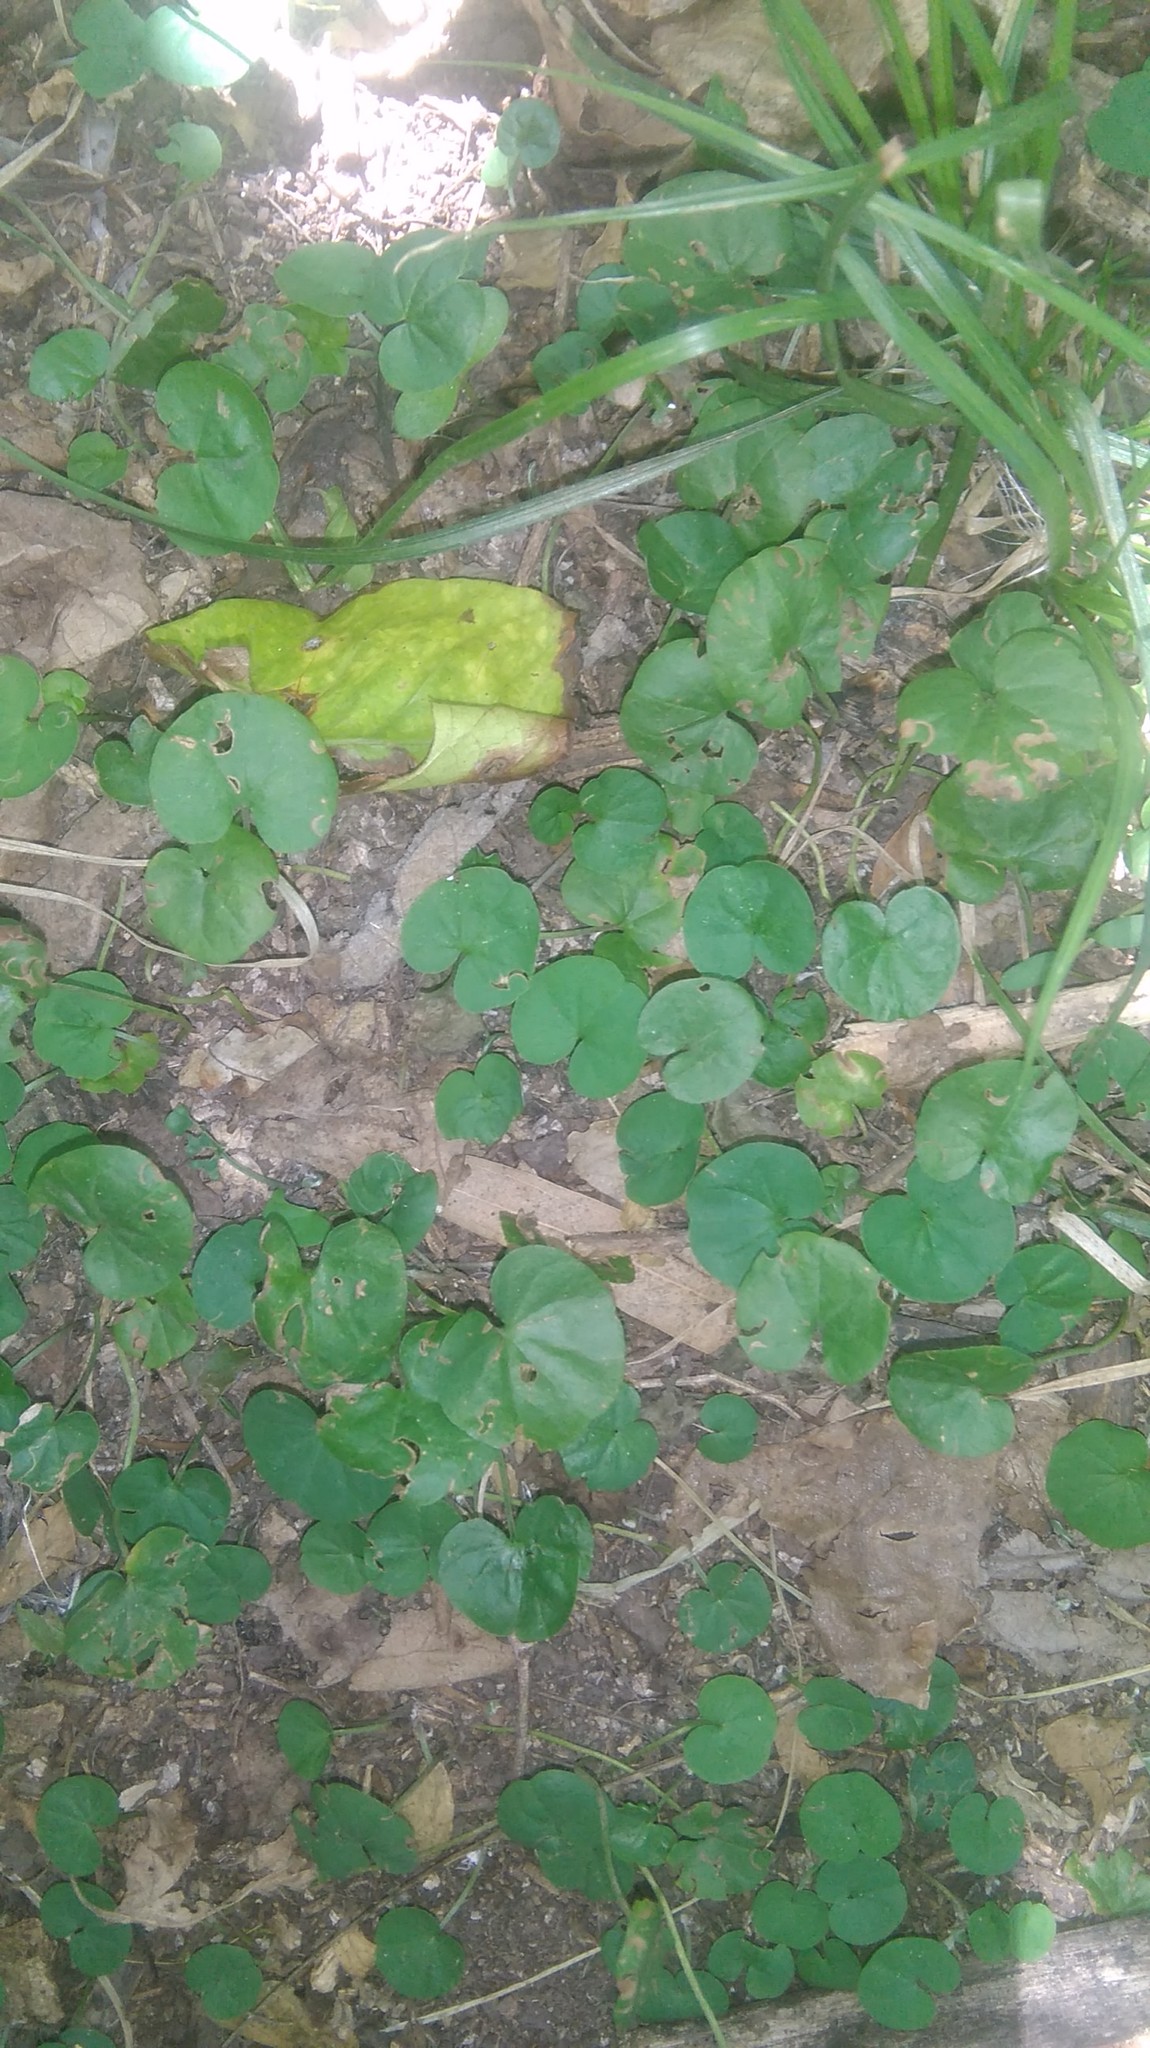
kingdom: Plantae
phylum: Tracheophyta
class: Magnoliopsida
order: Solanales
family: Convolvulaceae
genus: Dichondra
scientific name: Dichondra repens
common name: Kidneyweed
